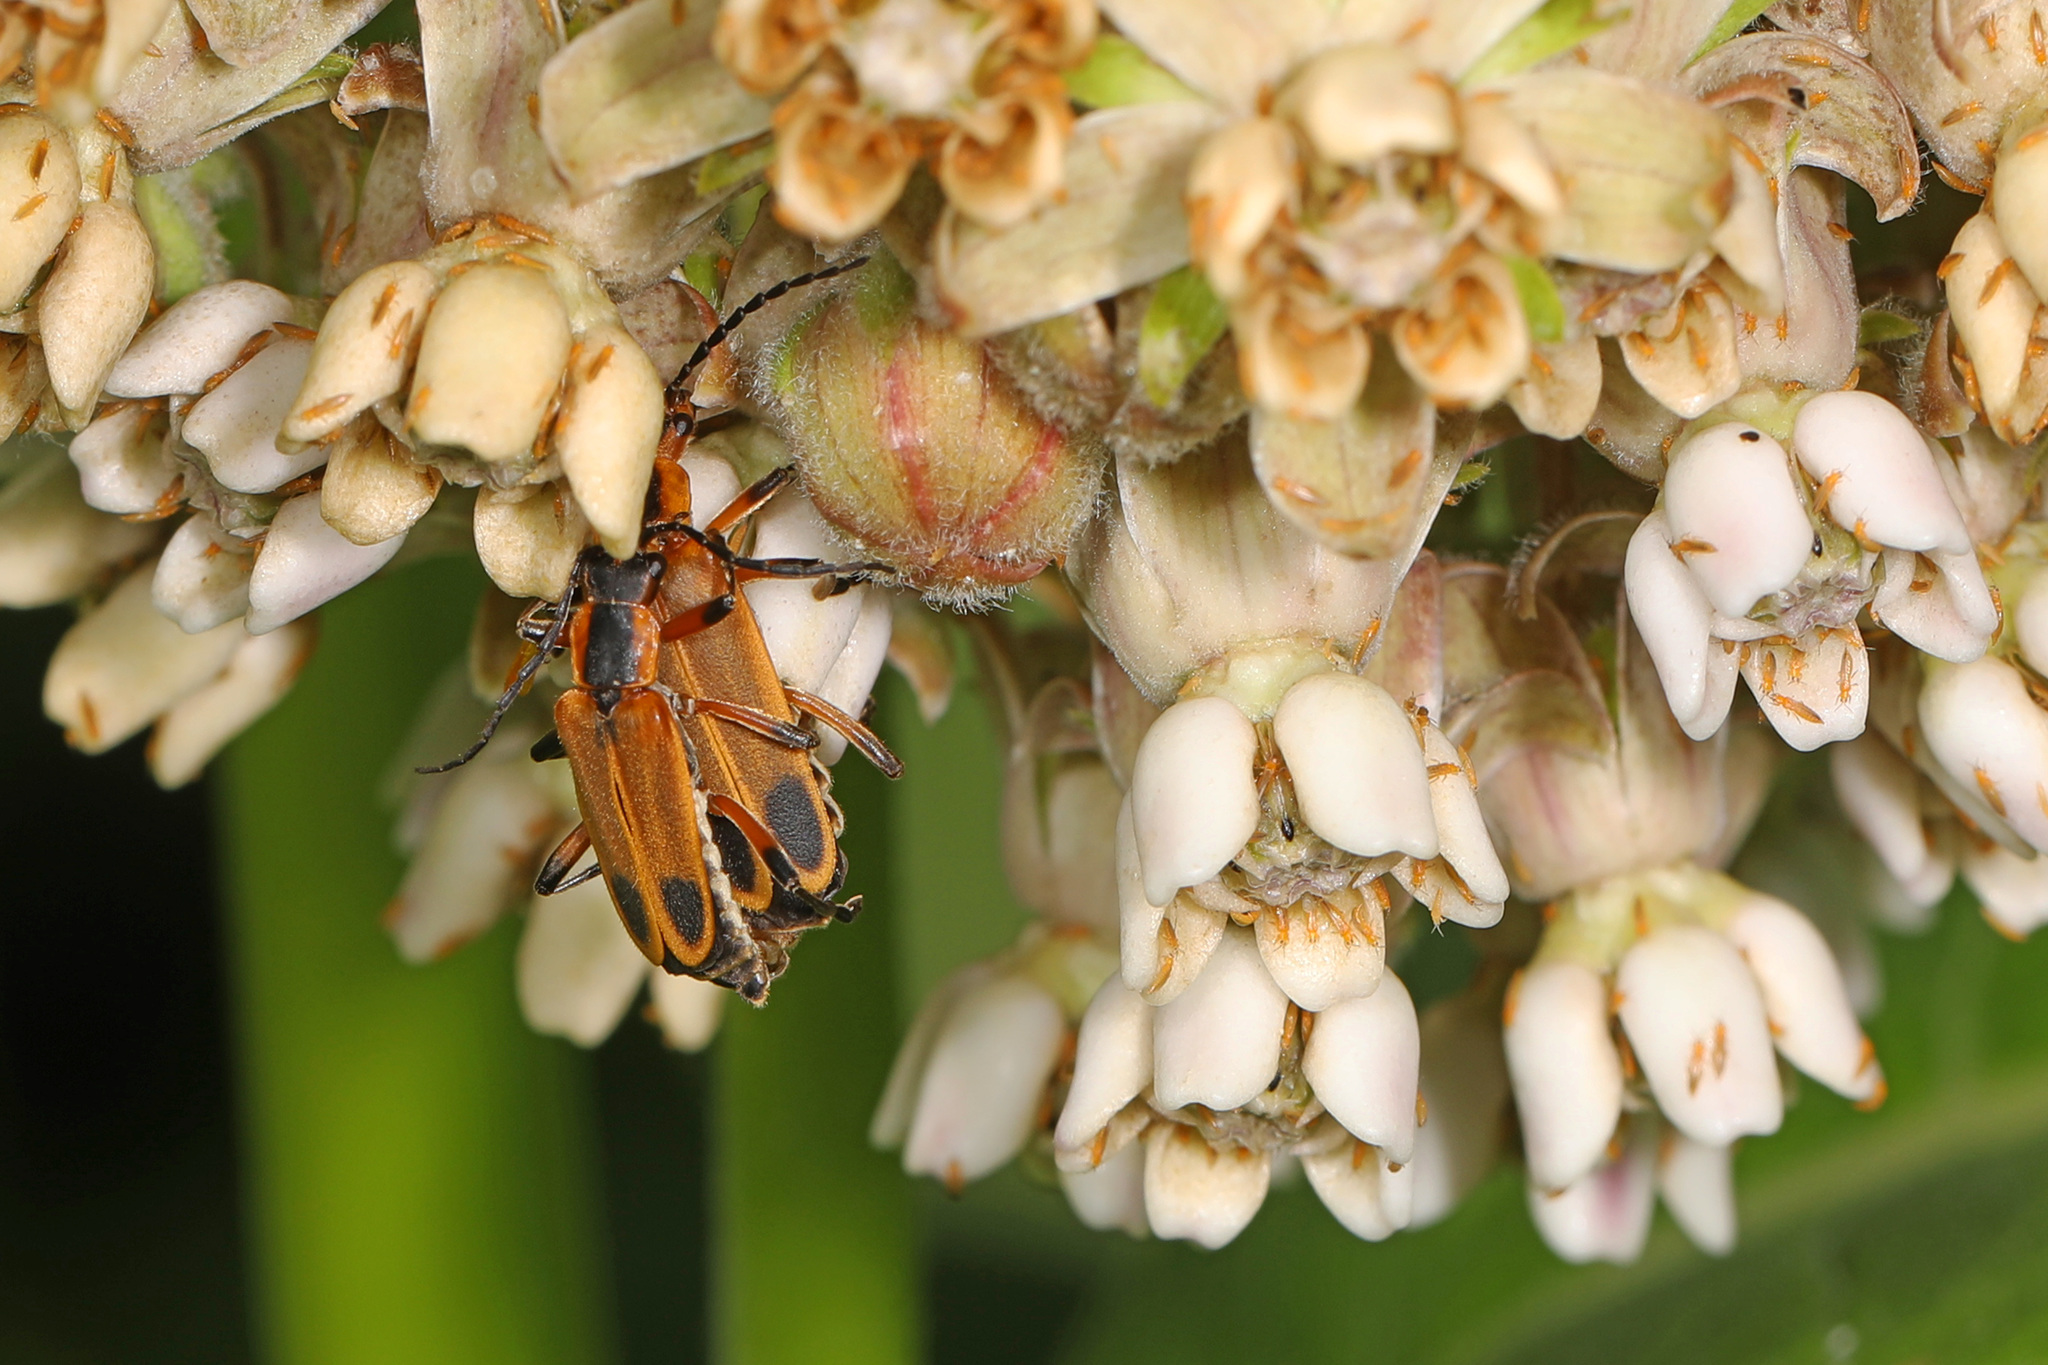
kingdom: Animalia
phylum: Arthropoda
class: Insecta
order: Coleoptera
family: Cantharidae
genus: Chauliognathus
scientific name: Chauliognathus marginatus
